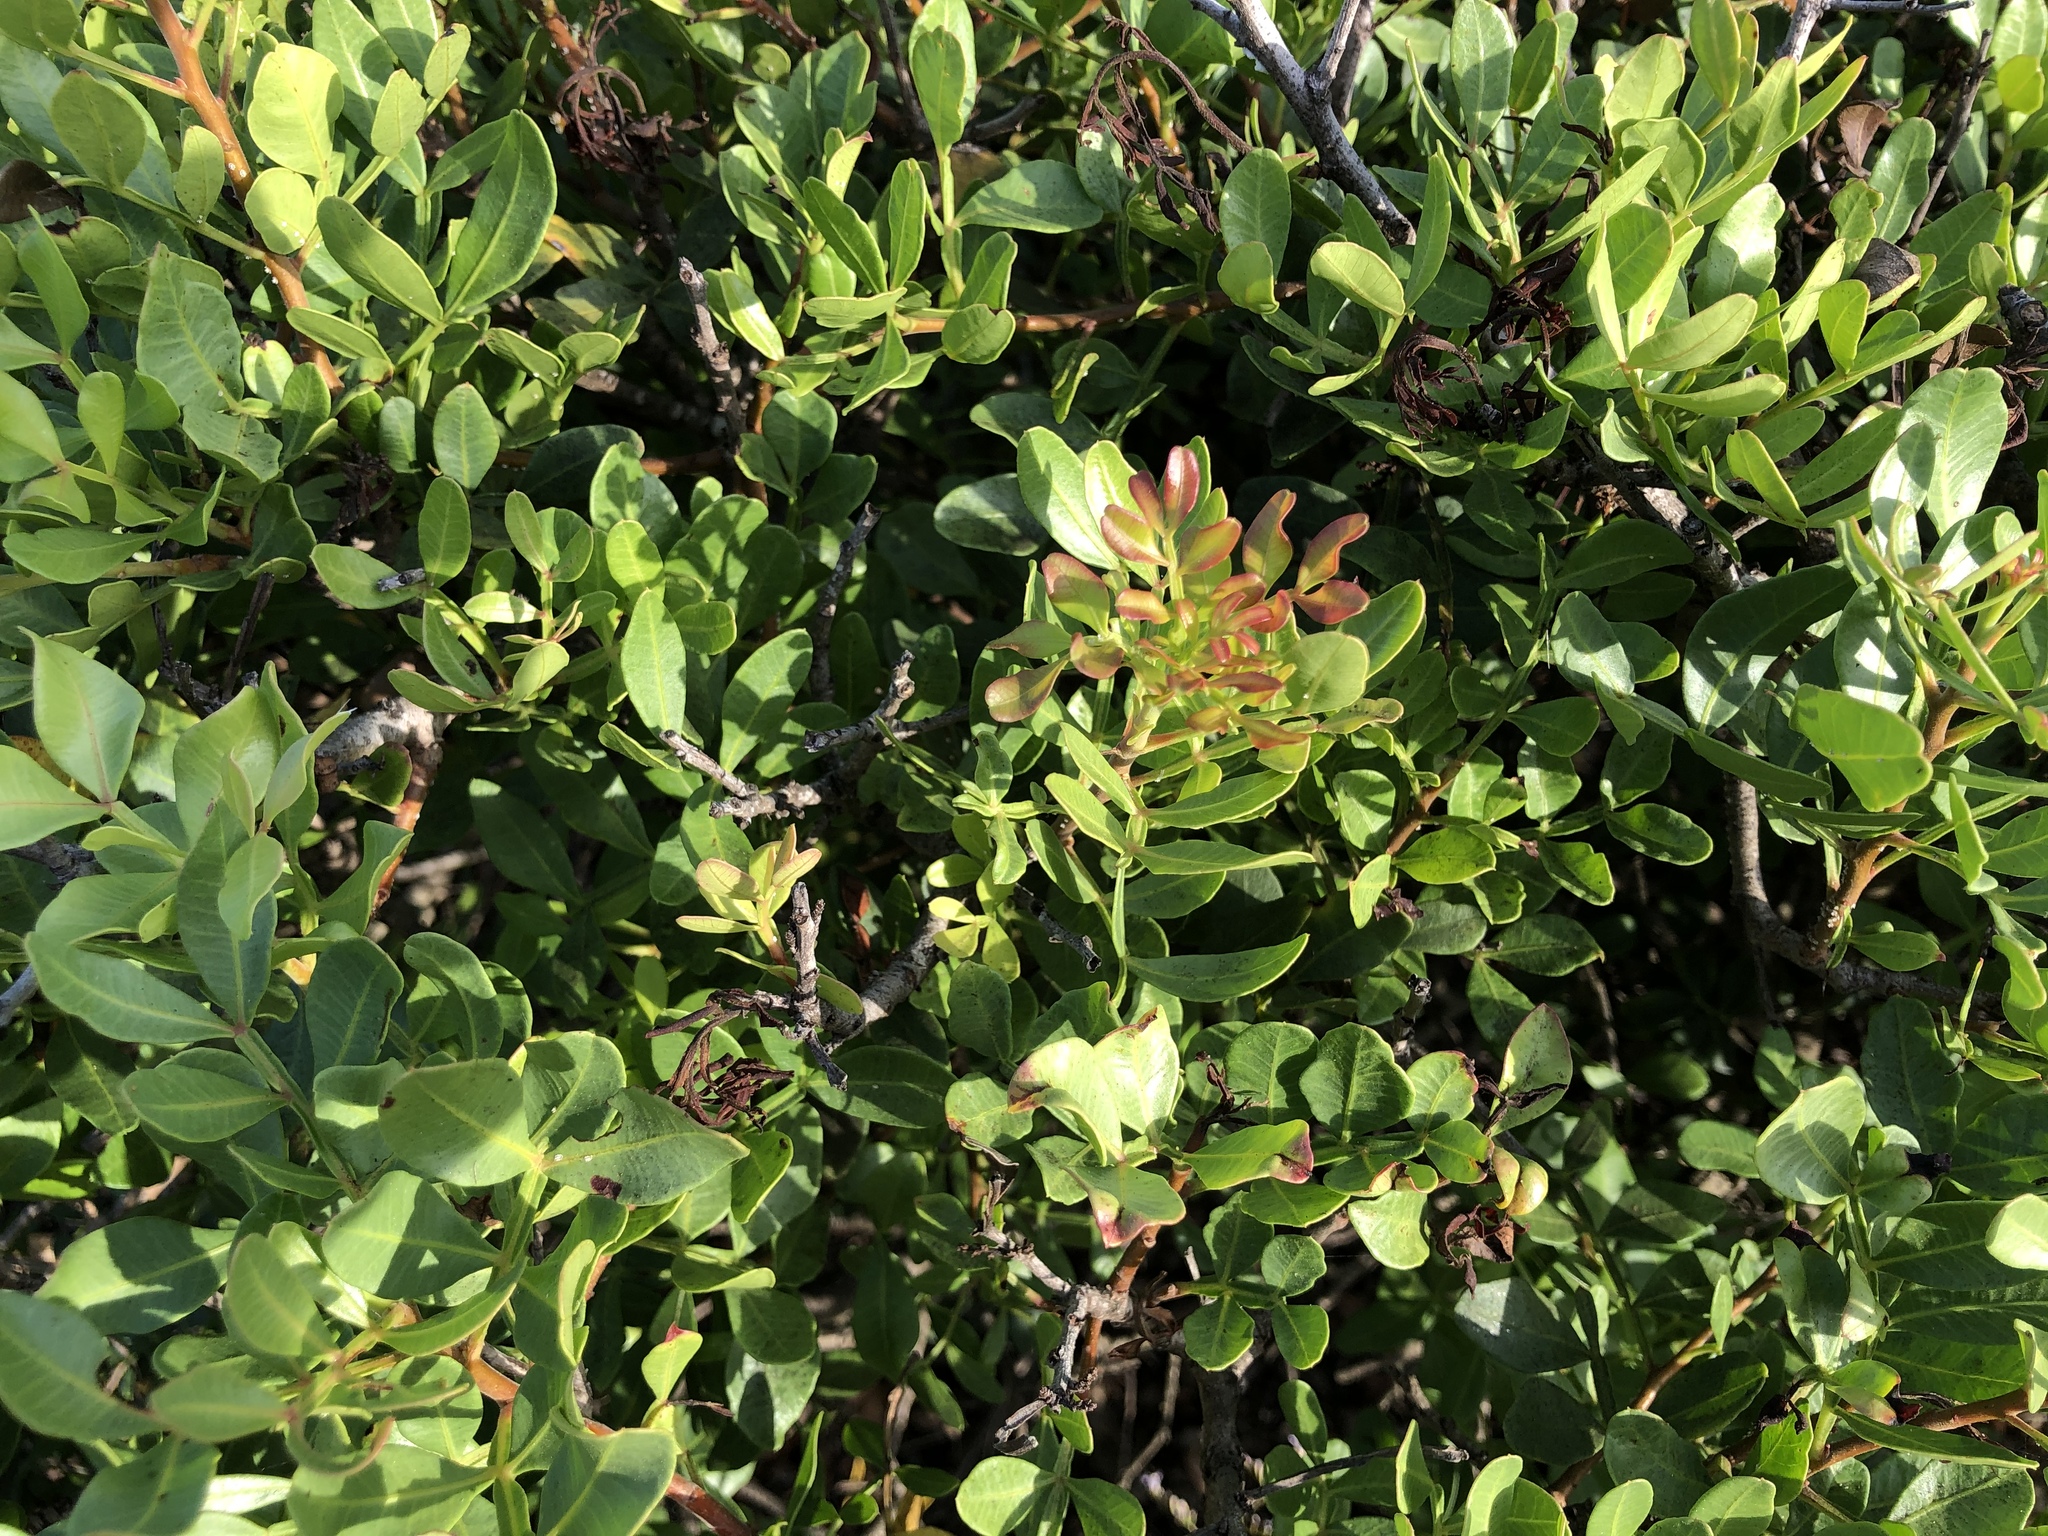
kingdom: Plantae
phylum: Tracheophyta
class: Magnoliopsida
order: Sapindales
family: Anacardiaceae
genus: Pistacia
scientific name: Pistacia lentiscus
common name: Lentisk
